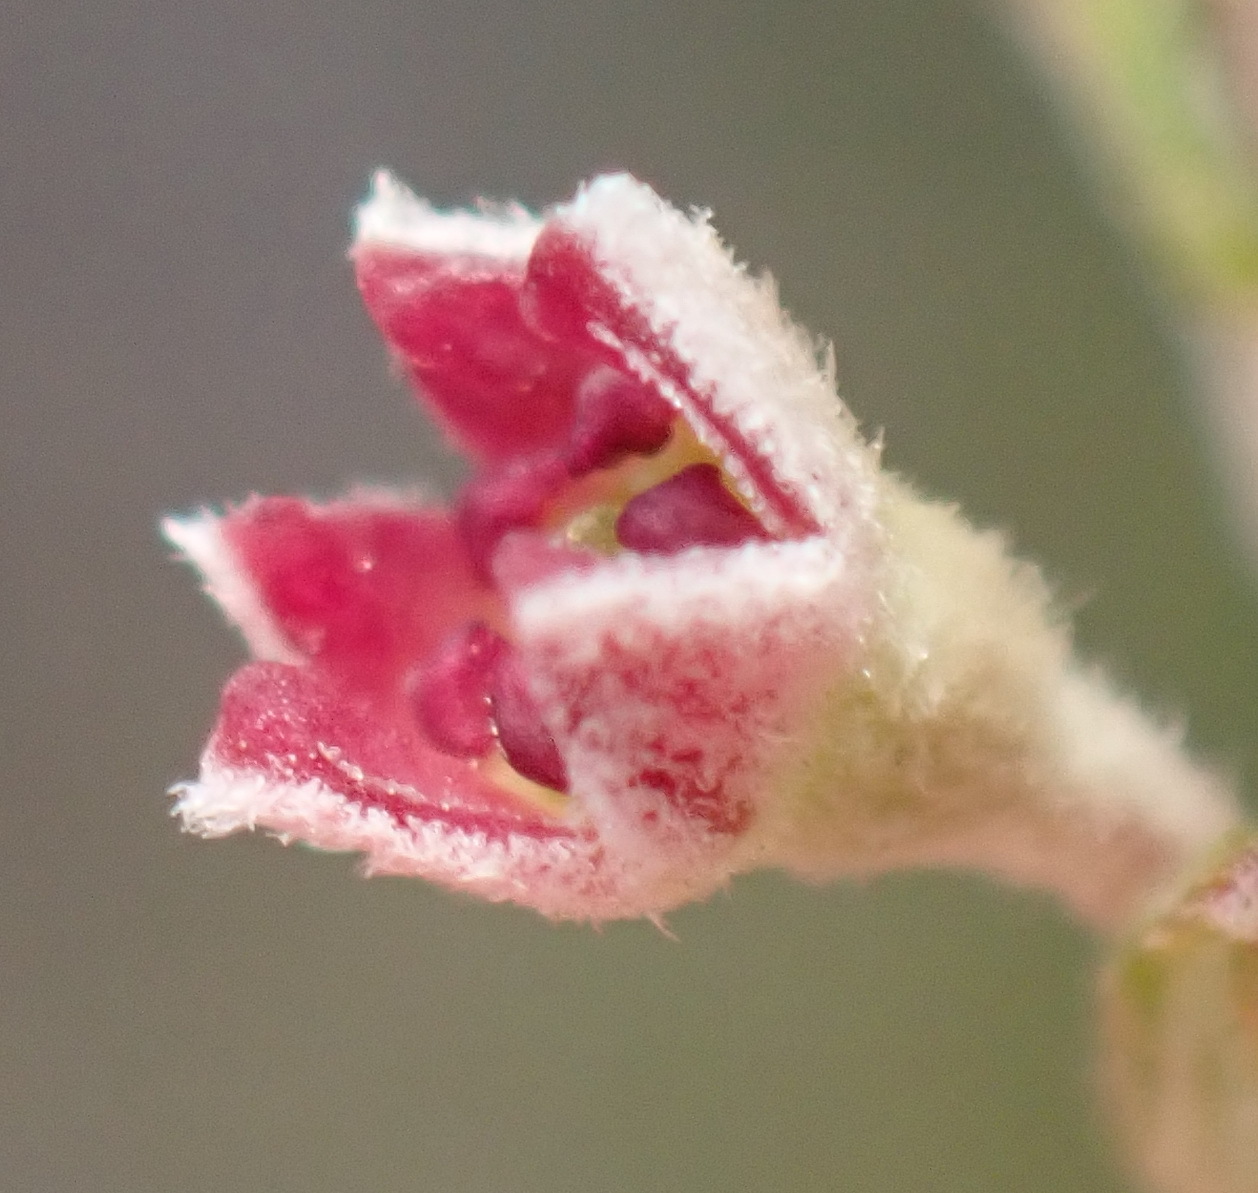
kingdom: Plantae
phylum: Tracheophyta
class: Magnoliopsida
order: Rosales
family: Rhamnaceae
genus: Phylica
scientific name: Phylica purpurea
